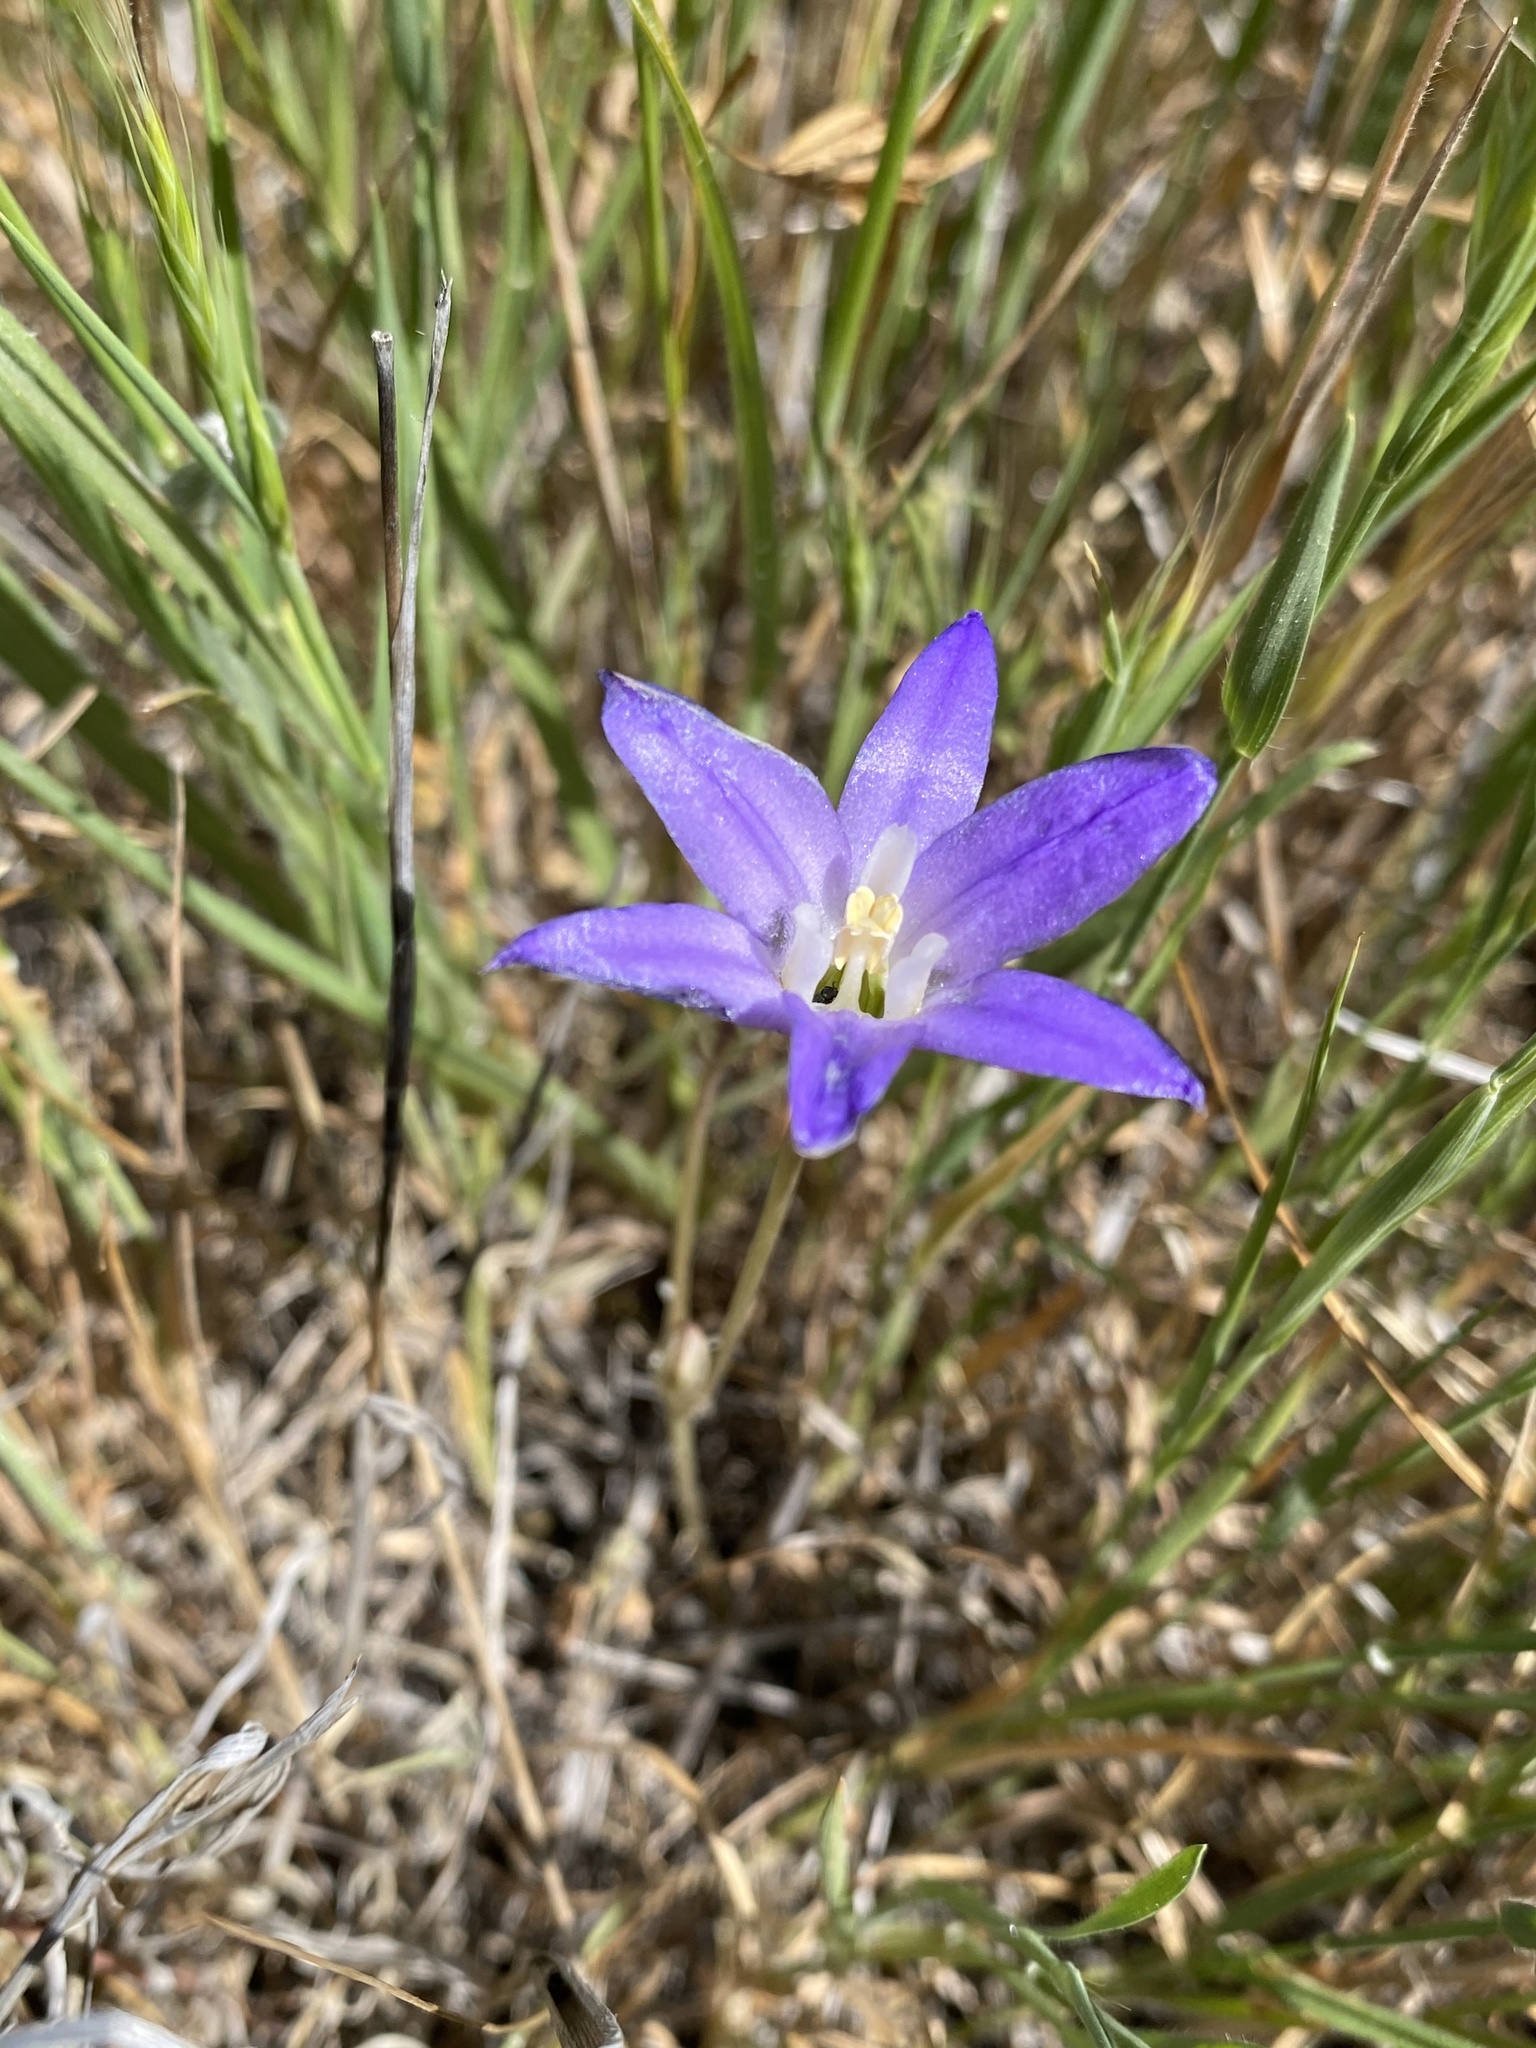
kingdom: Plantae
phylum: Tracheophyta
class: Liliopsida
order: Asparagales
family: Asparagaceae
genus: Brodiaea
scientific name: Brodiaea terrestris
